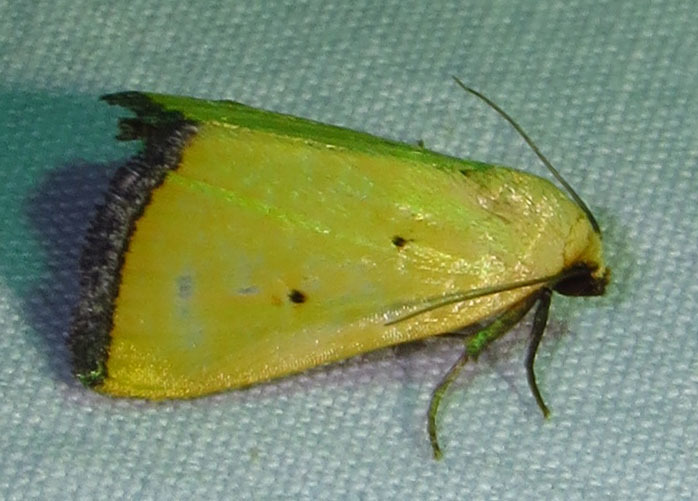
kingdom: Animalia
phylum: Arthropoda
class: Insecta
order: Lepidoptera
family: Noctuidae
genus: Marimatha
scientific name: Marimatha nigrofimbria
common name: Black-bordered lemon moth
